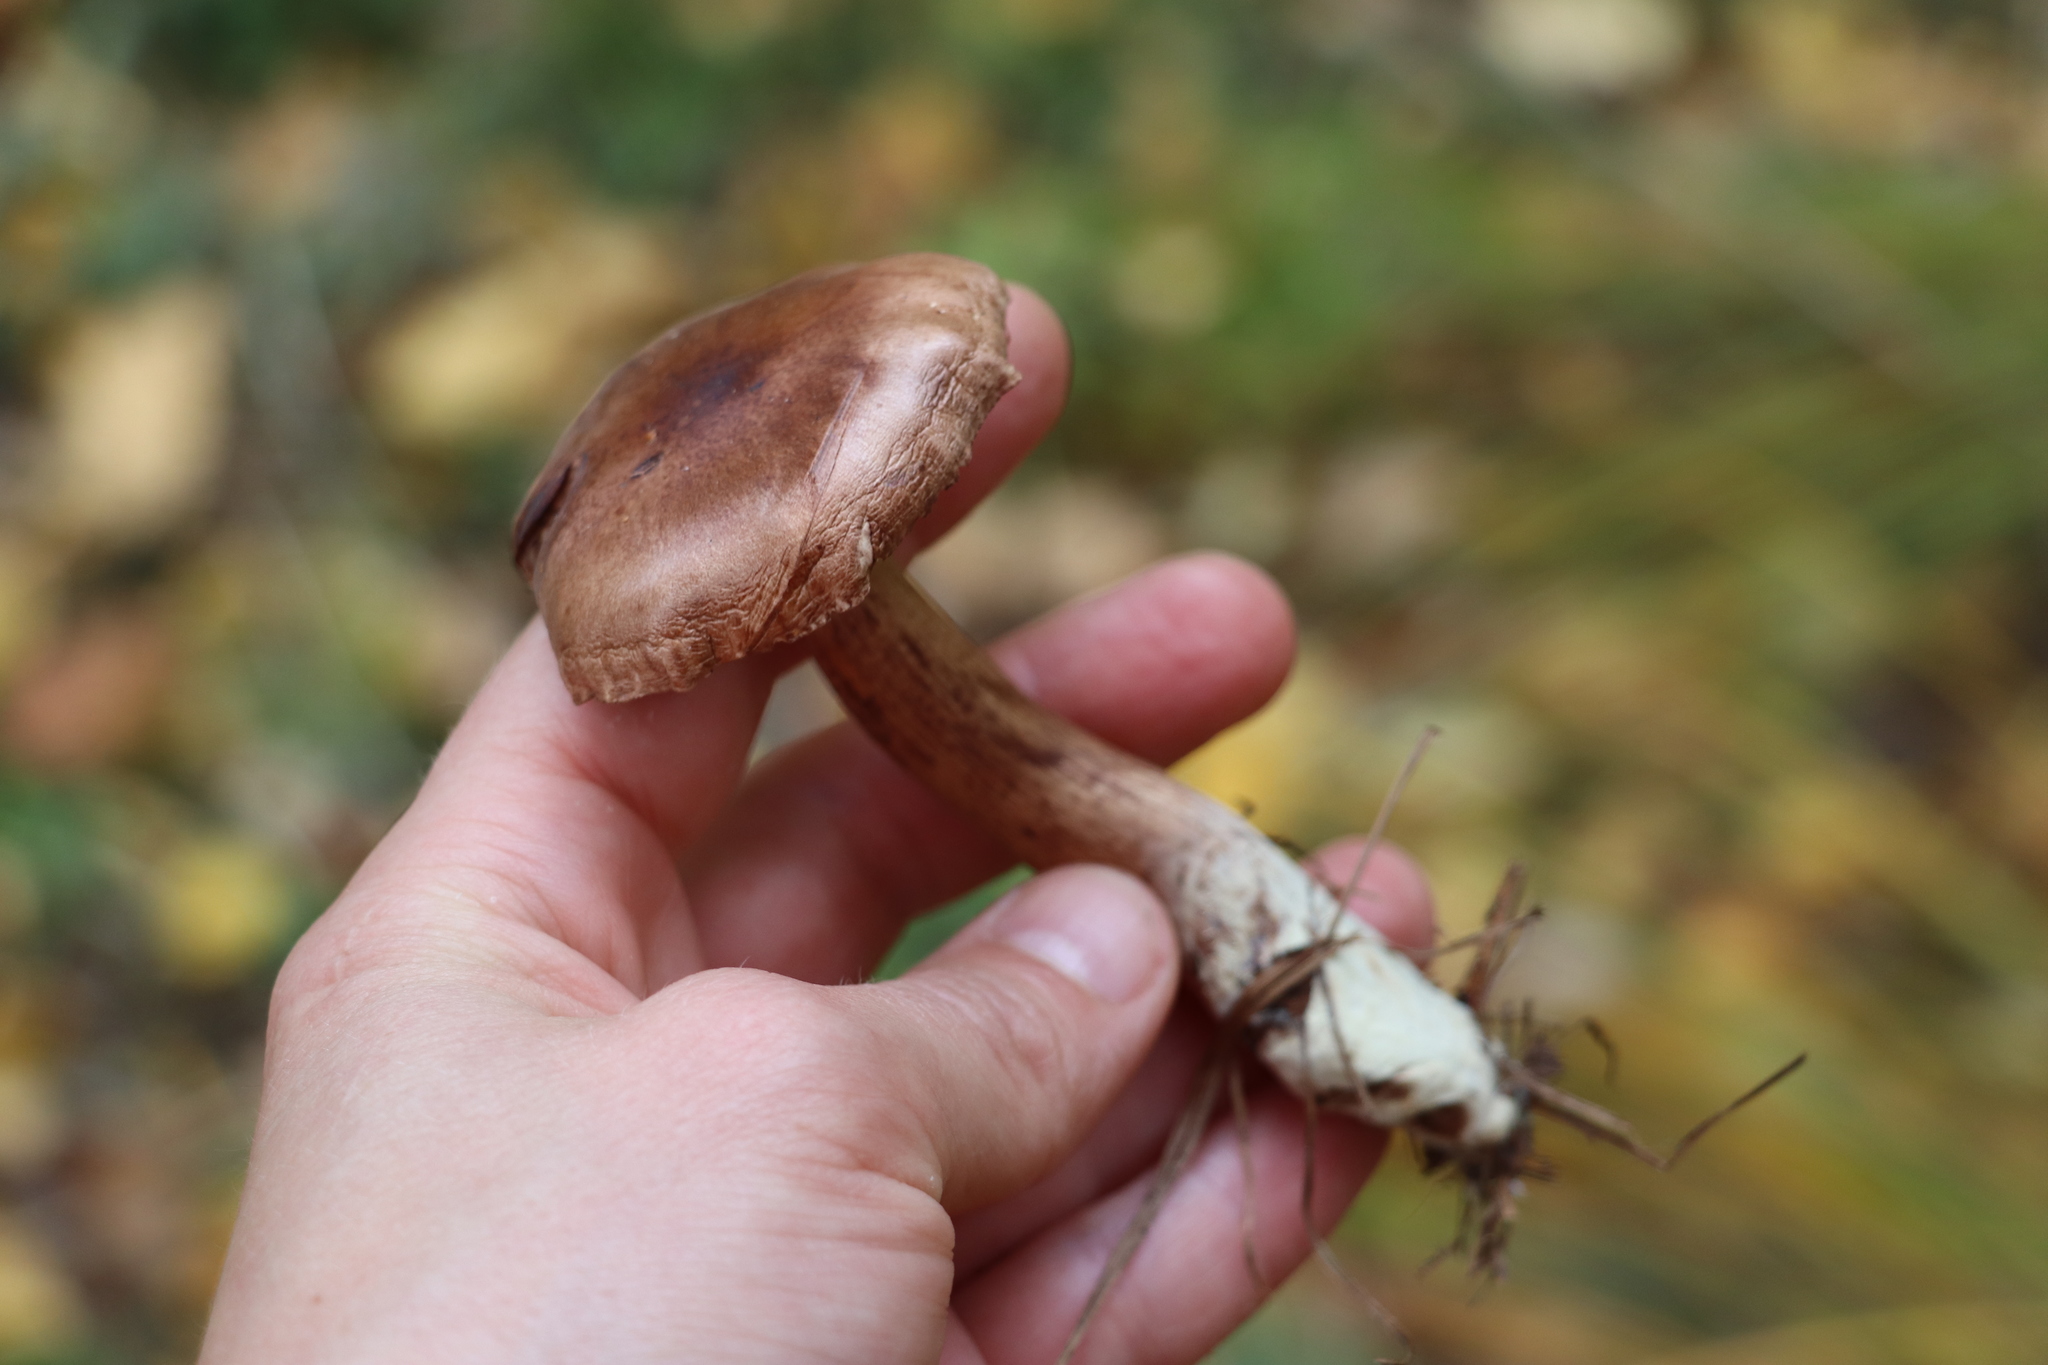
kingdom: Fungi
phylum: Basidiomycota
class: Agaricomycetes
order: Agaricales
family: Tricholomataceae
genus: Tricholoma
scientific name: Tricholoma fulvum
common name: Birch knight
